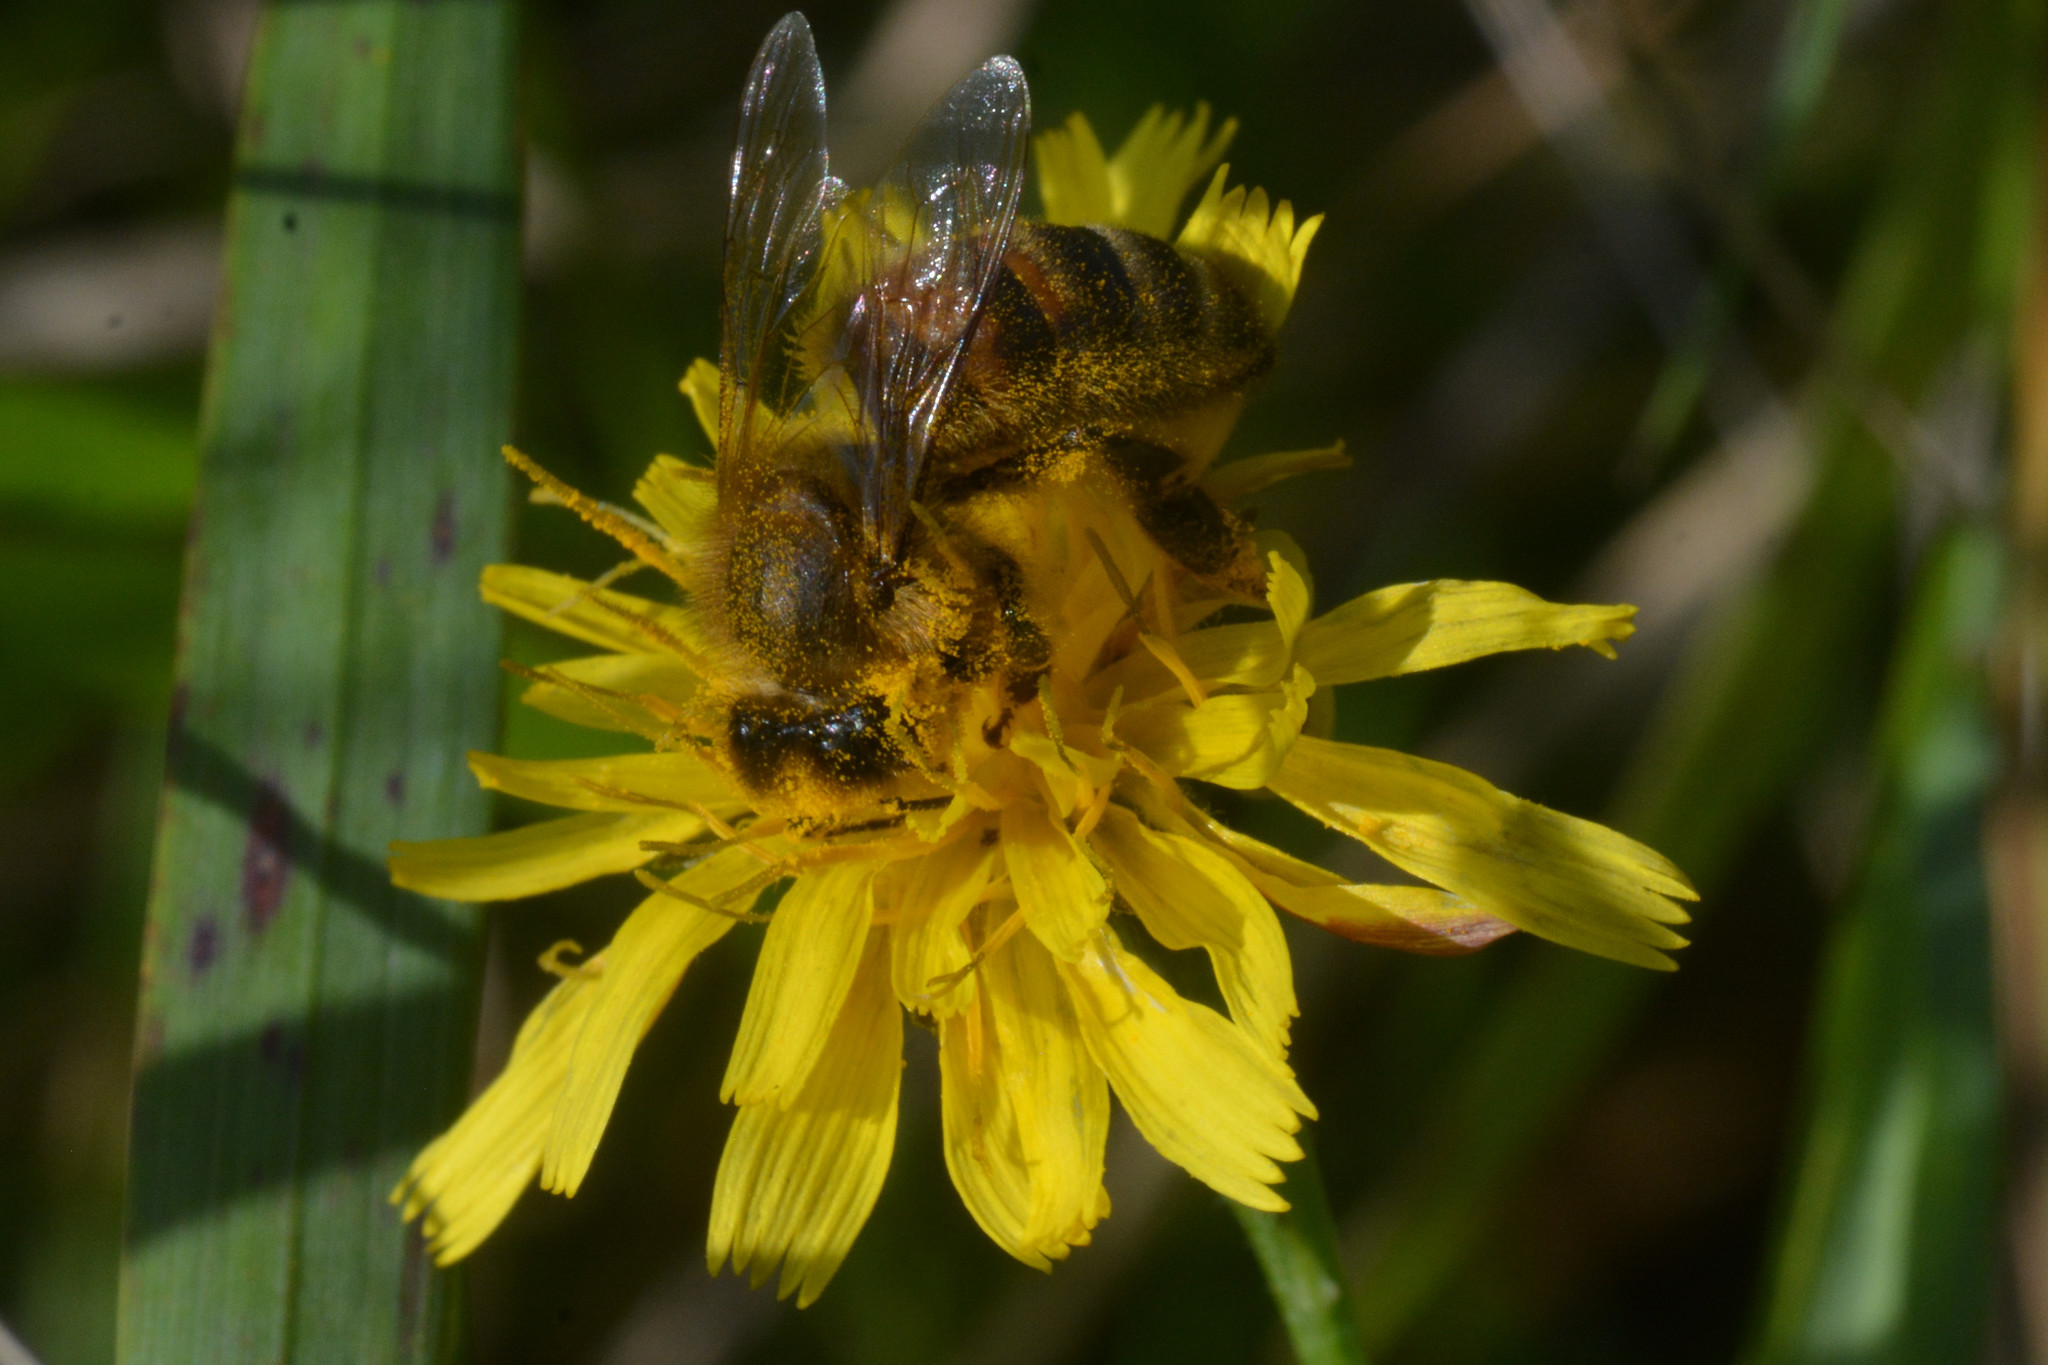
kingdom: Animalia
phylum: Arthropoda
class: Insecta
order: Hymenoptera
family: Apidae
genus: Apis
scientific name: Apis mellifera
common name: Honey bee
